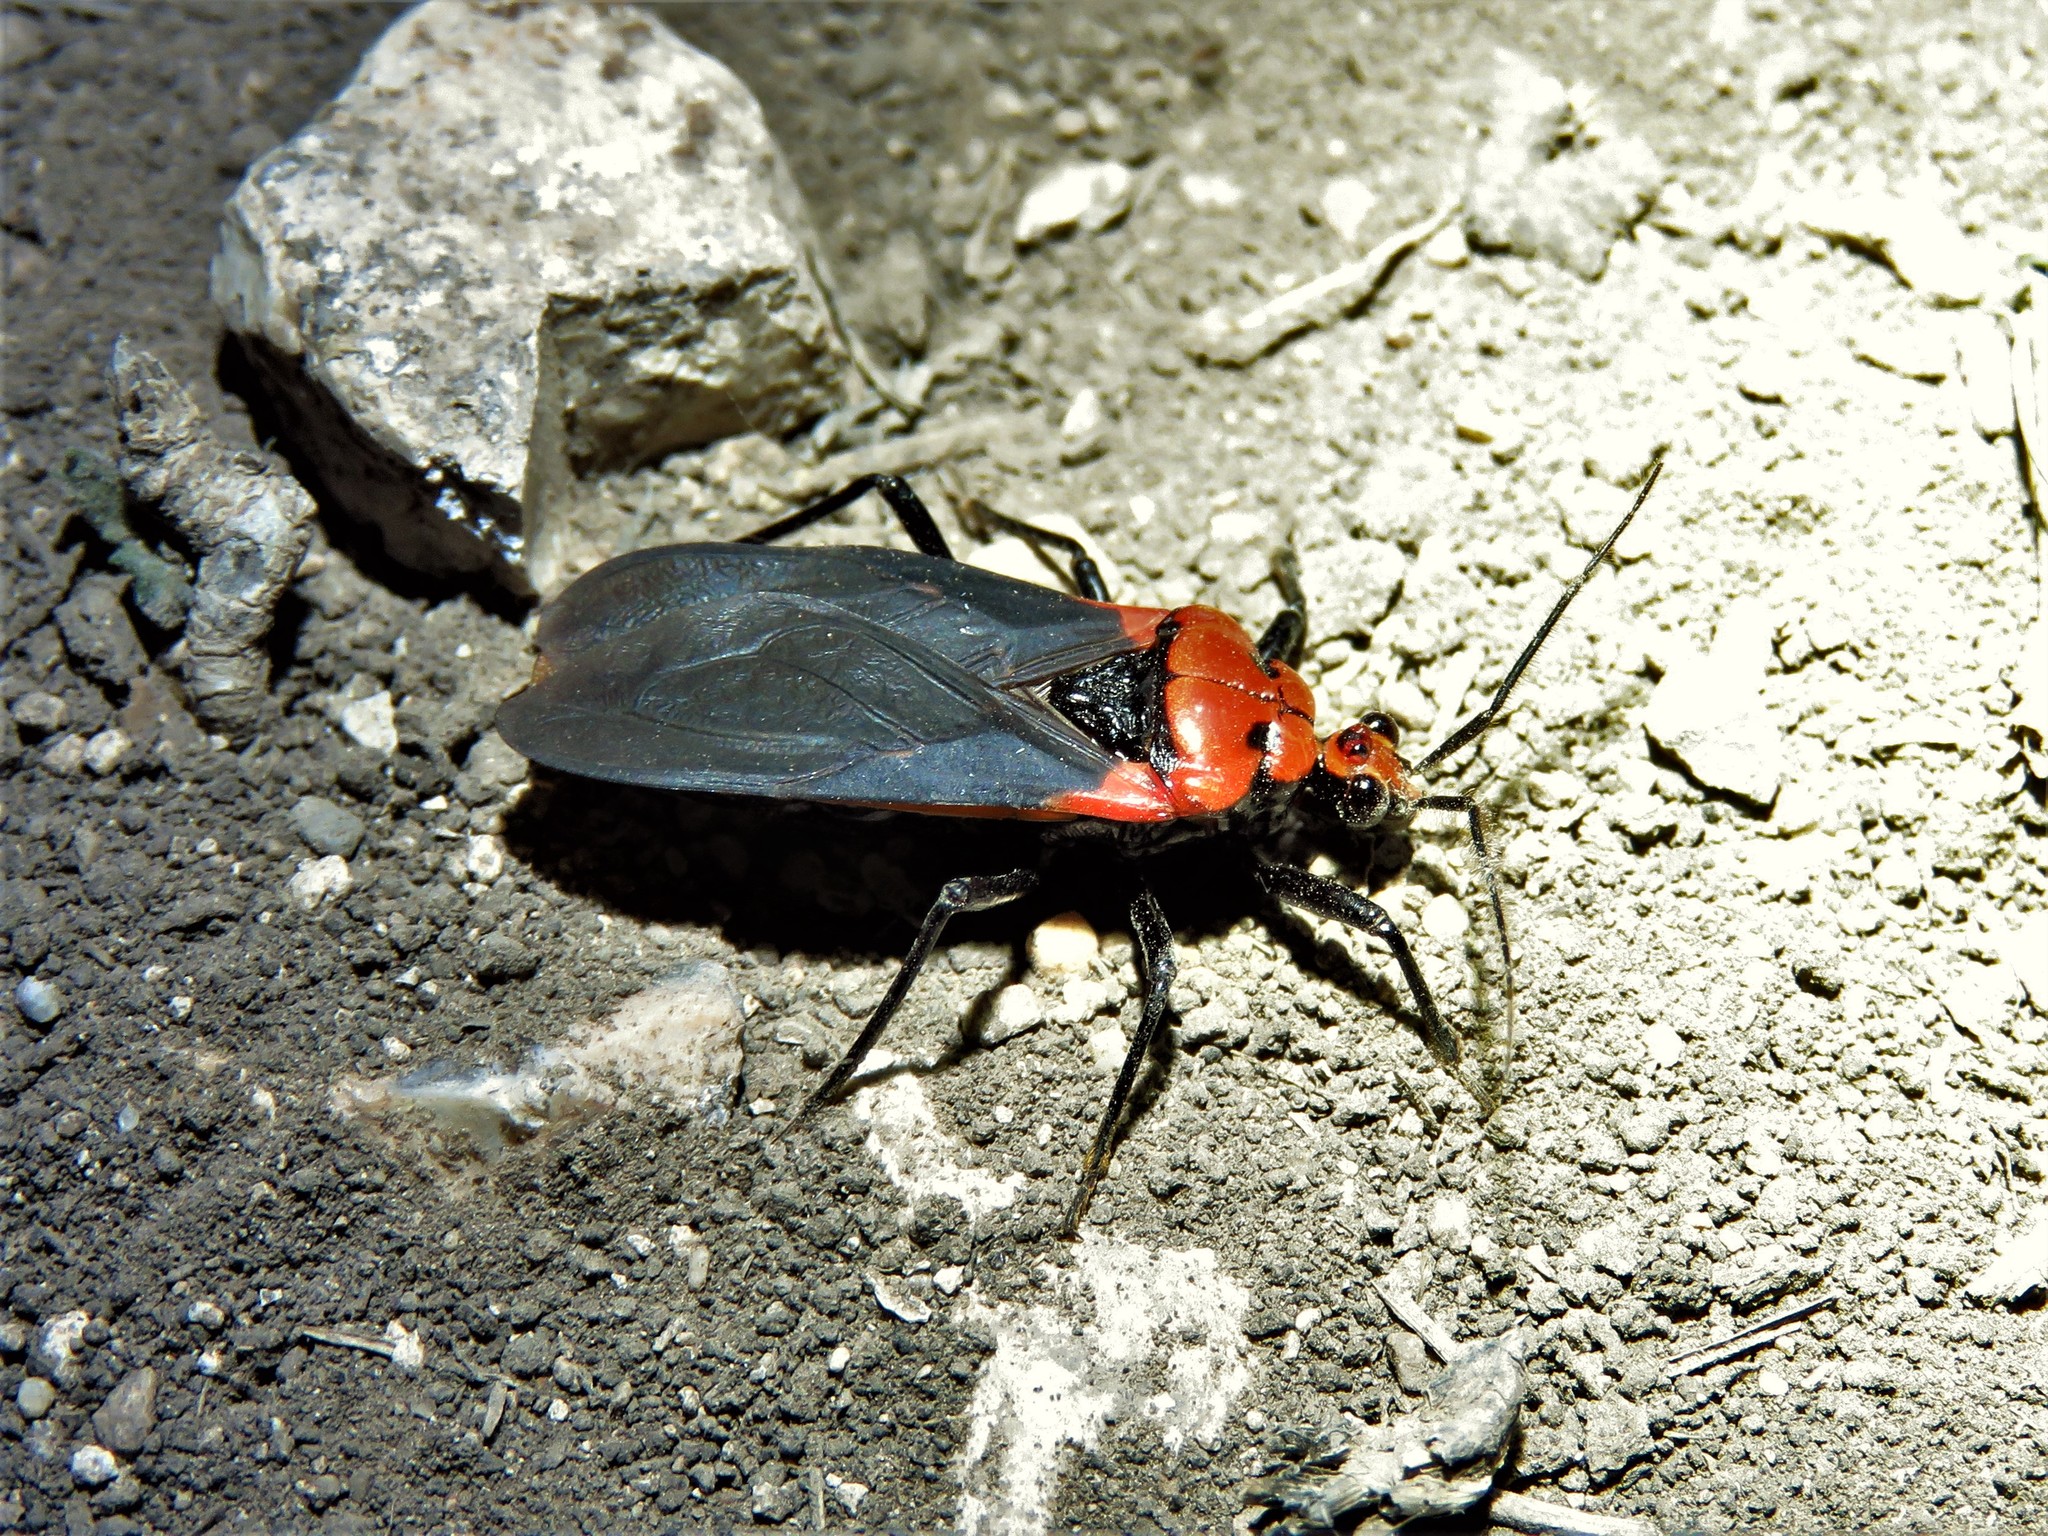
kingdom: Animalia
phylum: Arthropoda
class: Insecta
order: Hemiptera
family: Reduviidae
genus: Rhiginia
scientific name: Rhiginia cinctiventris
